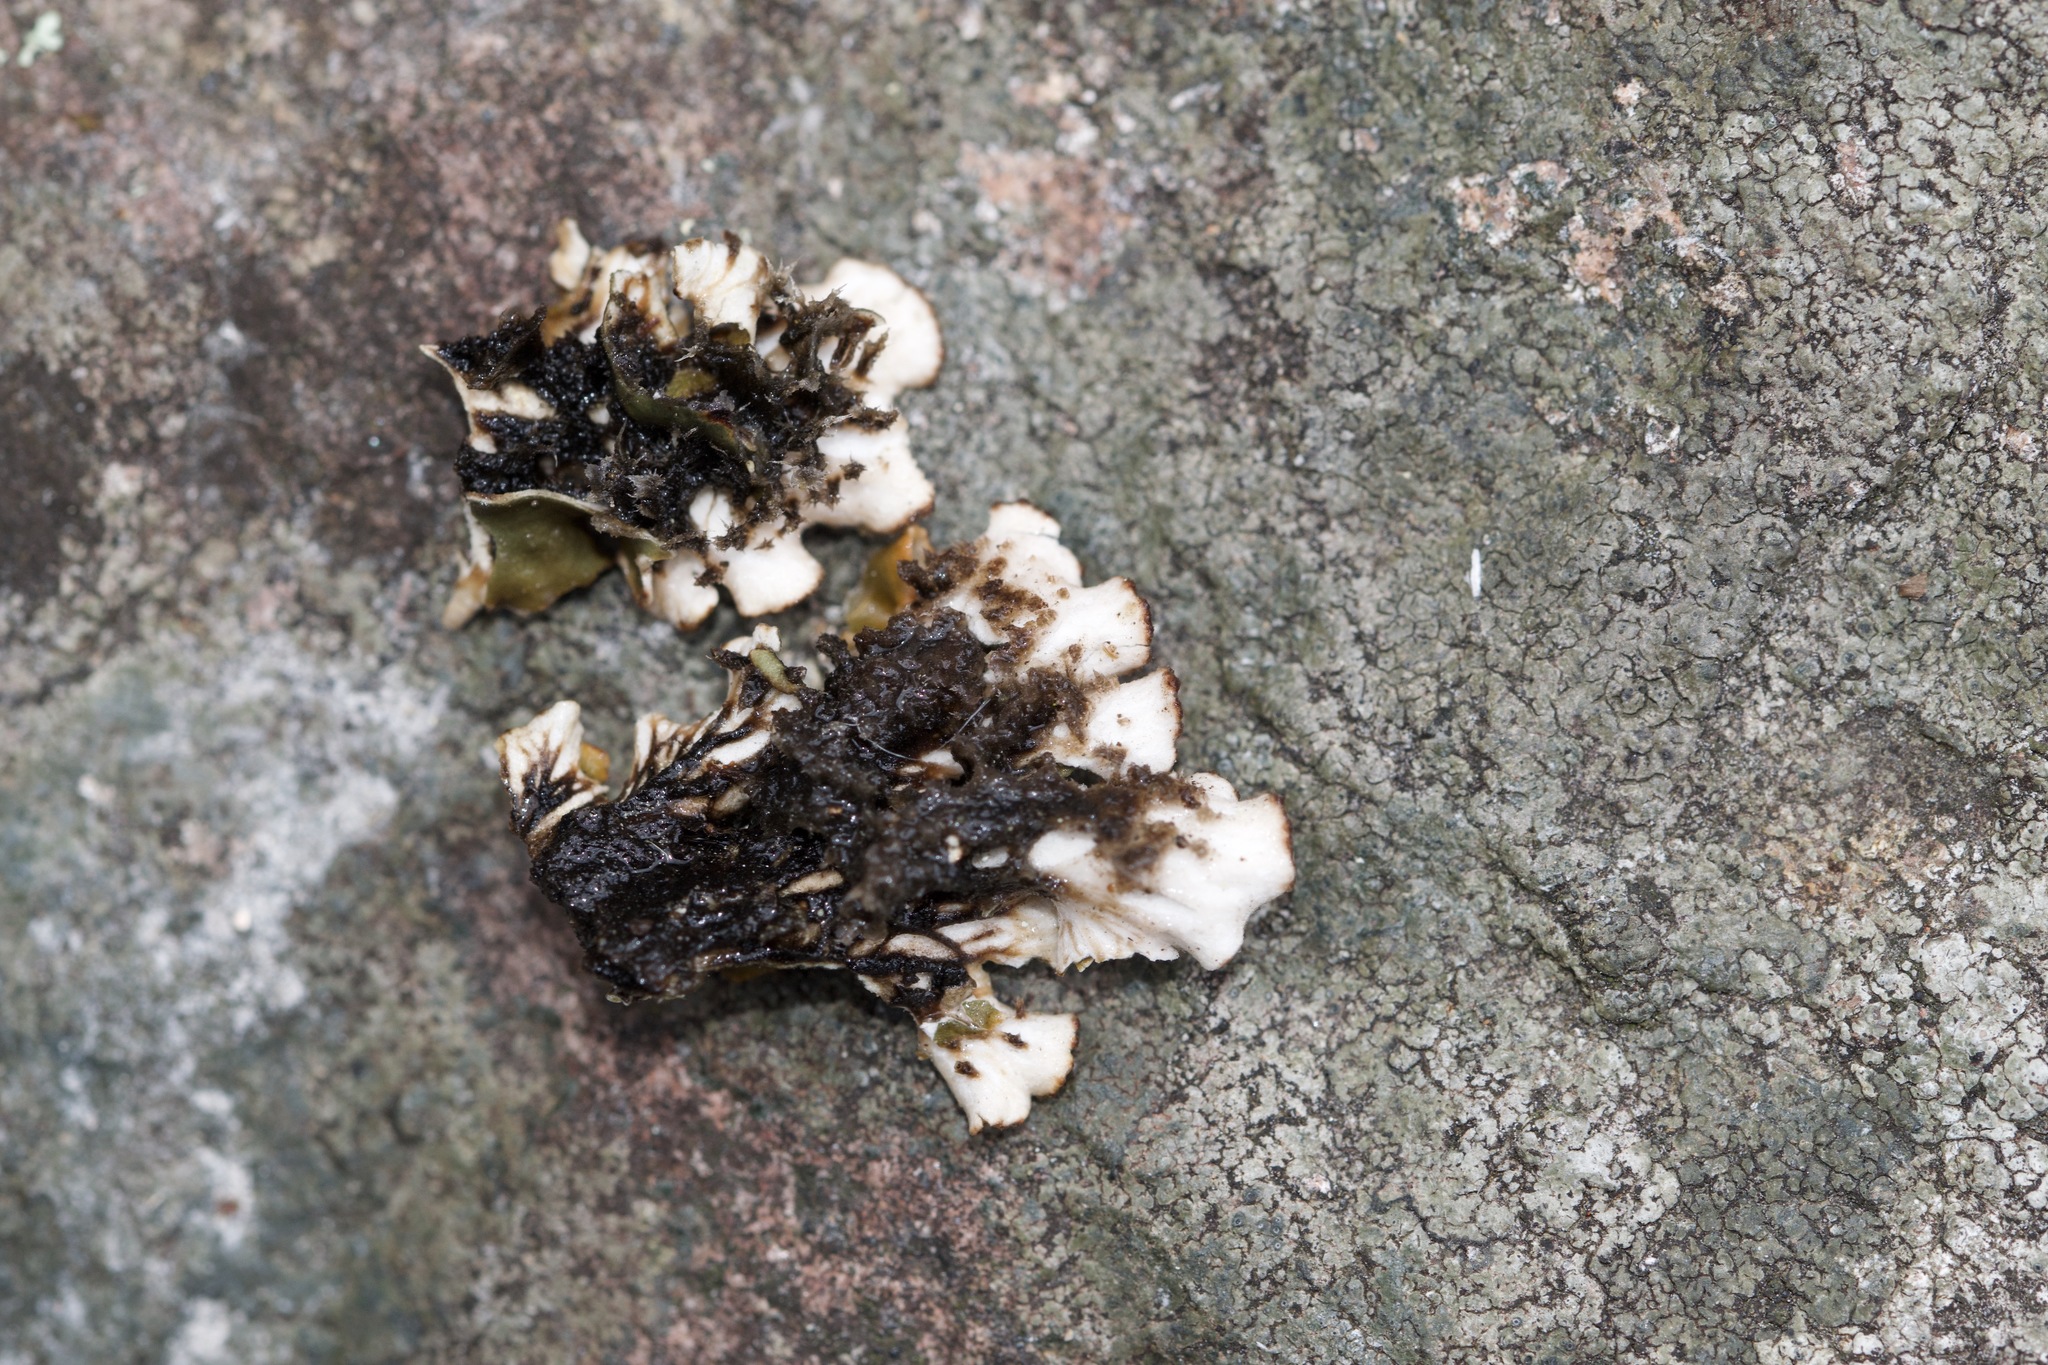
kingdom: Fungi
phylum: Ascomycota
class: Lecanoromycetes
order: Peltigerales
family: Peltigeraceae
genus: Peltigera
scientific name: Peltigera rufescens
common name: Field dog lichen
